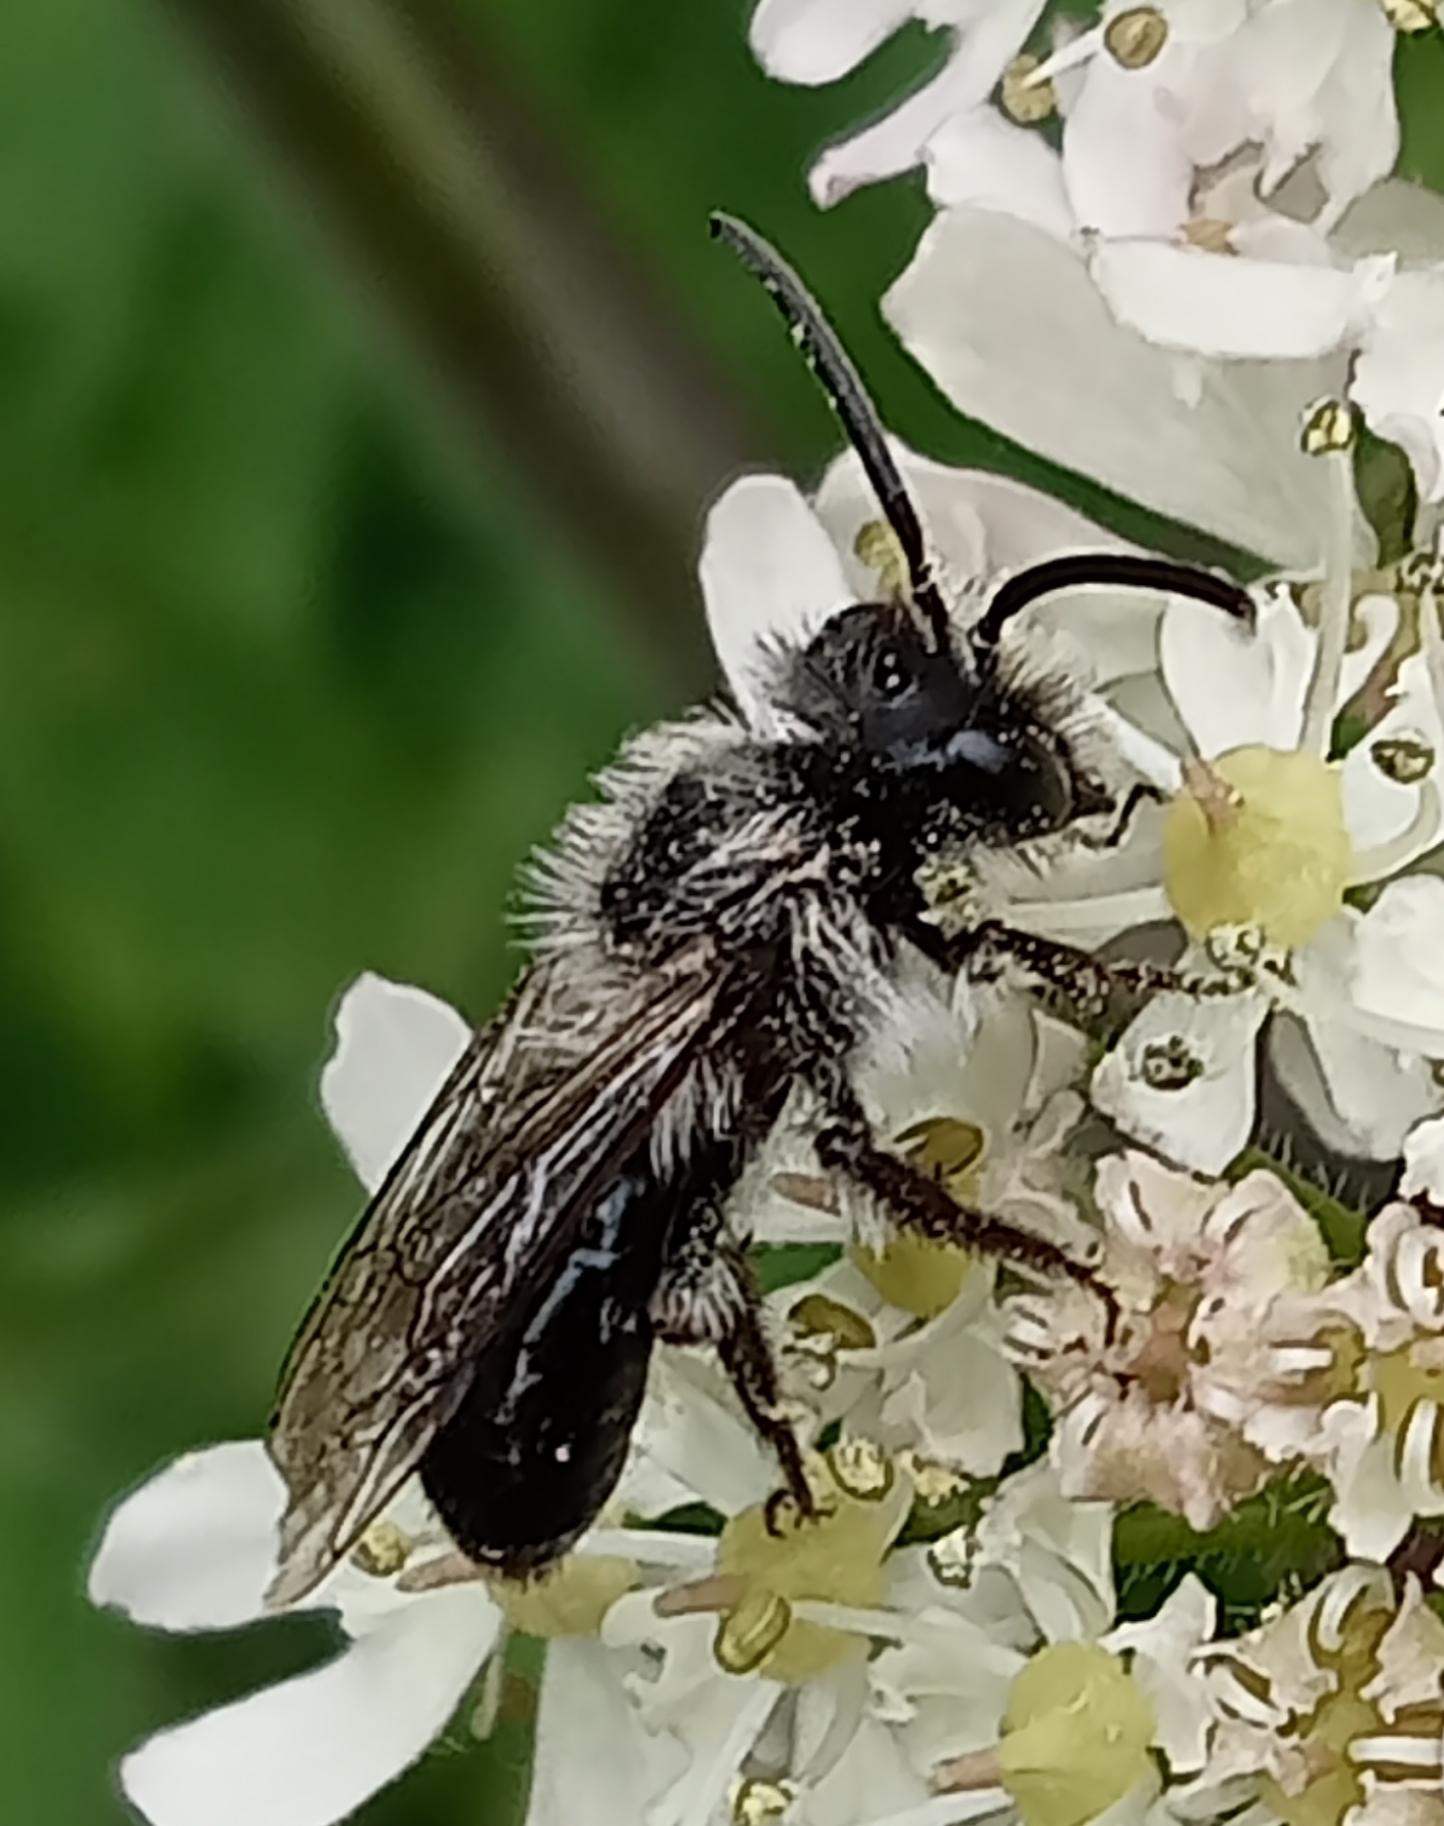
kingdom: Animalia
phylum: Arthropoda
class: Insecta
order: Hymenoptera
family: Andrenidae
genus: Andrena
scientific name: Andrena cineraria
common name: Ashy mining bee
